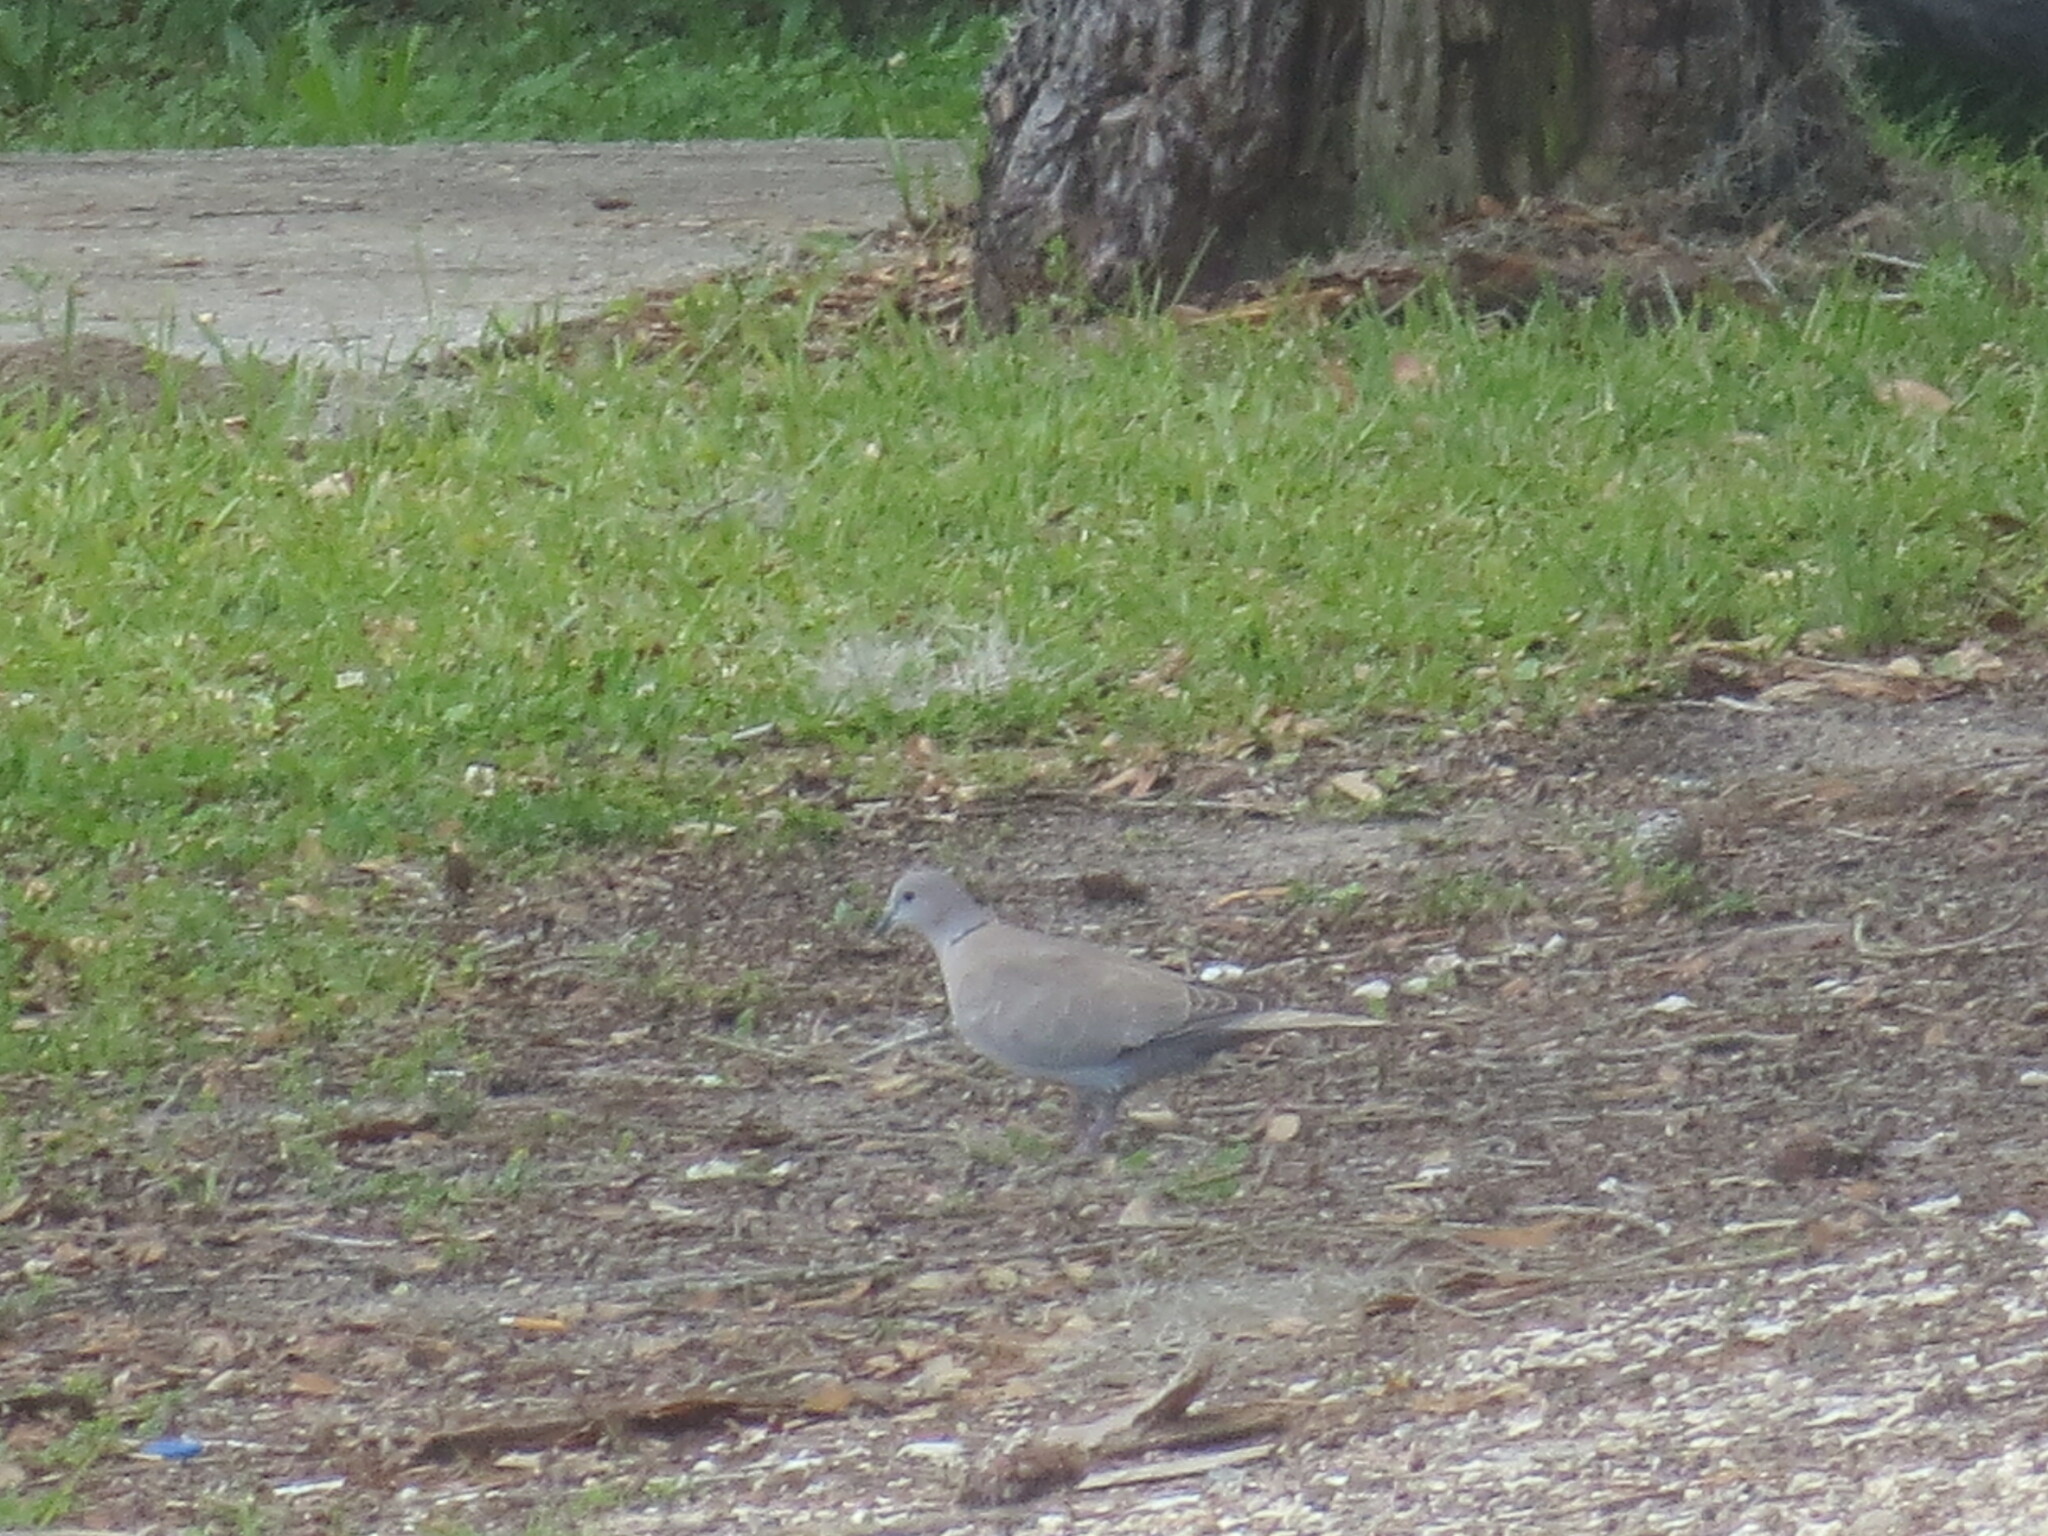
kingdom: Animalia
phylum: Chordata
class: Aves
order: Columbiformes
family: Columbidae
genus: Streptopelia
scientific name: Streptopelia decaocto
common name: Eurasian collared dove
